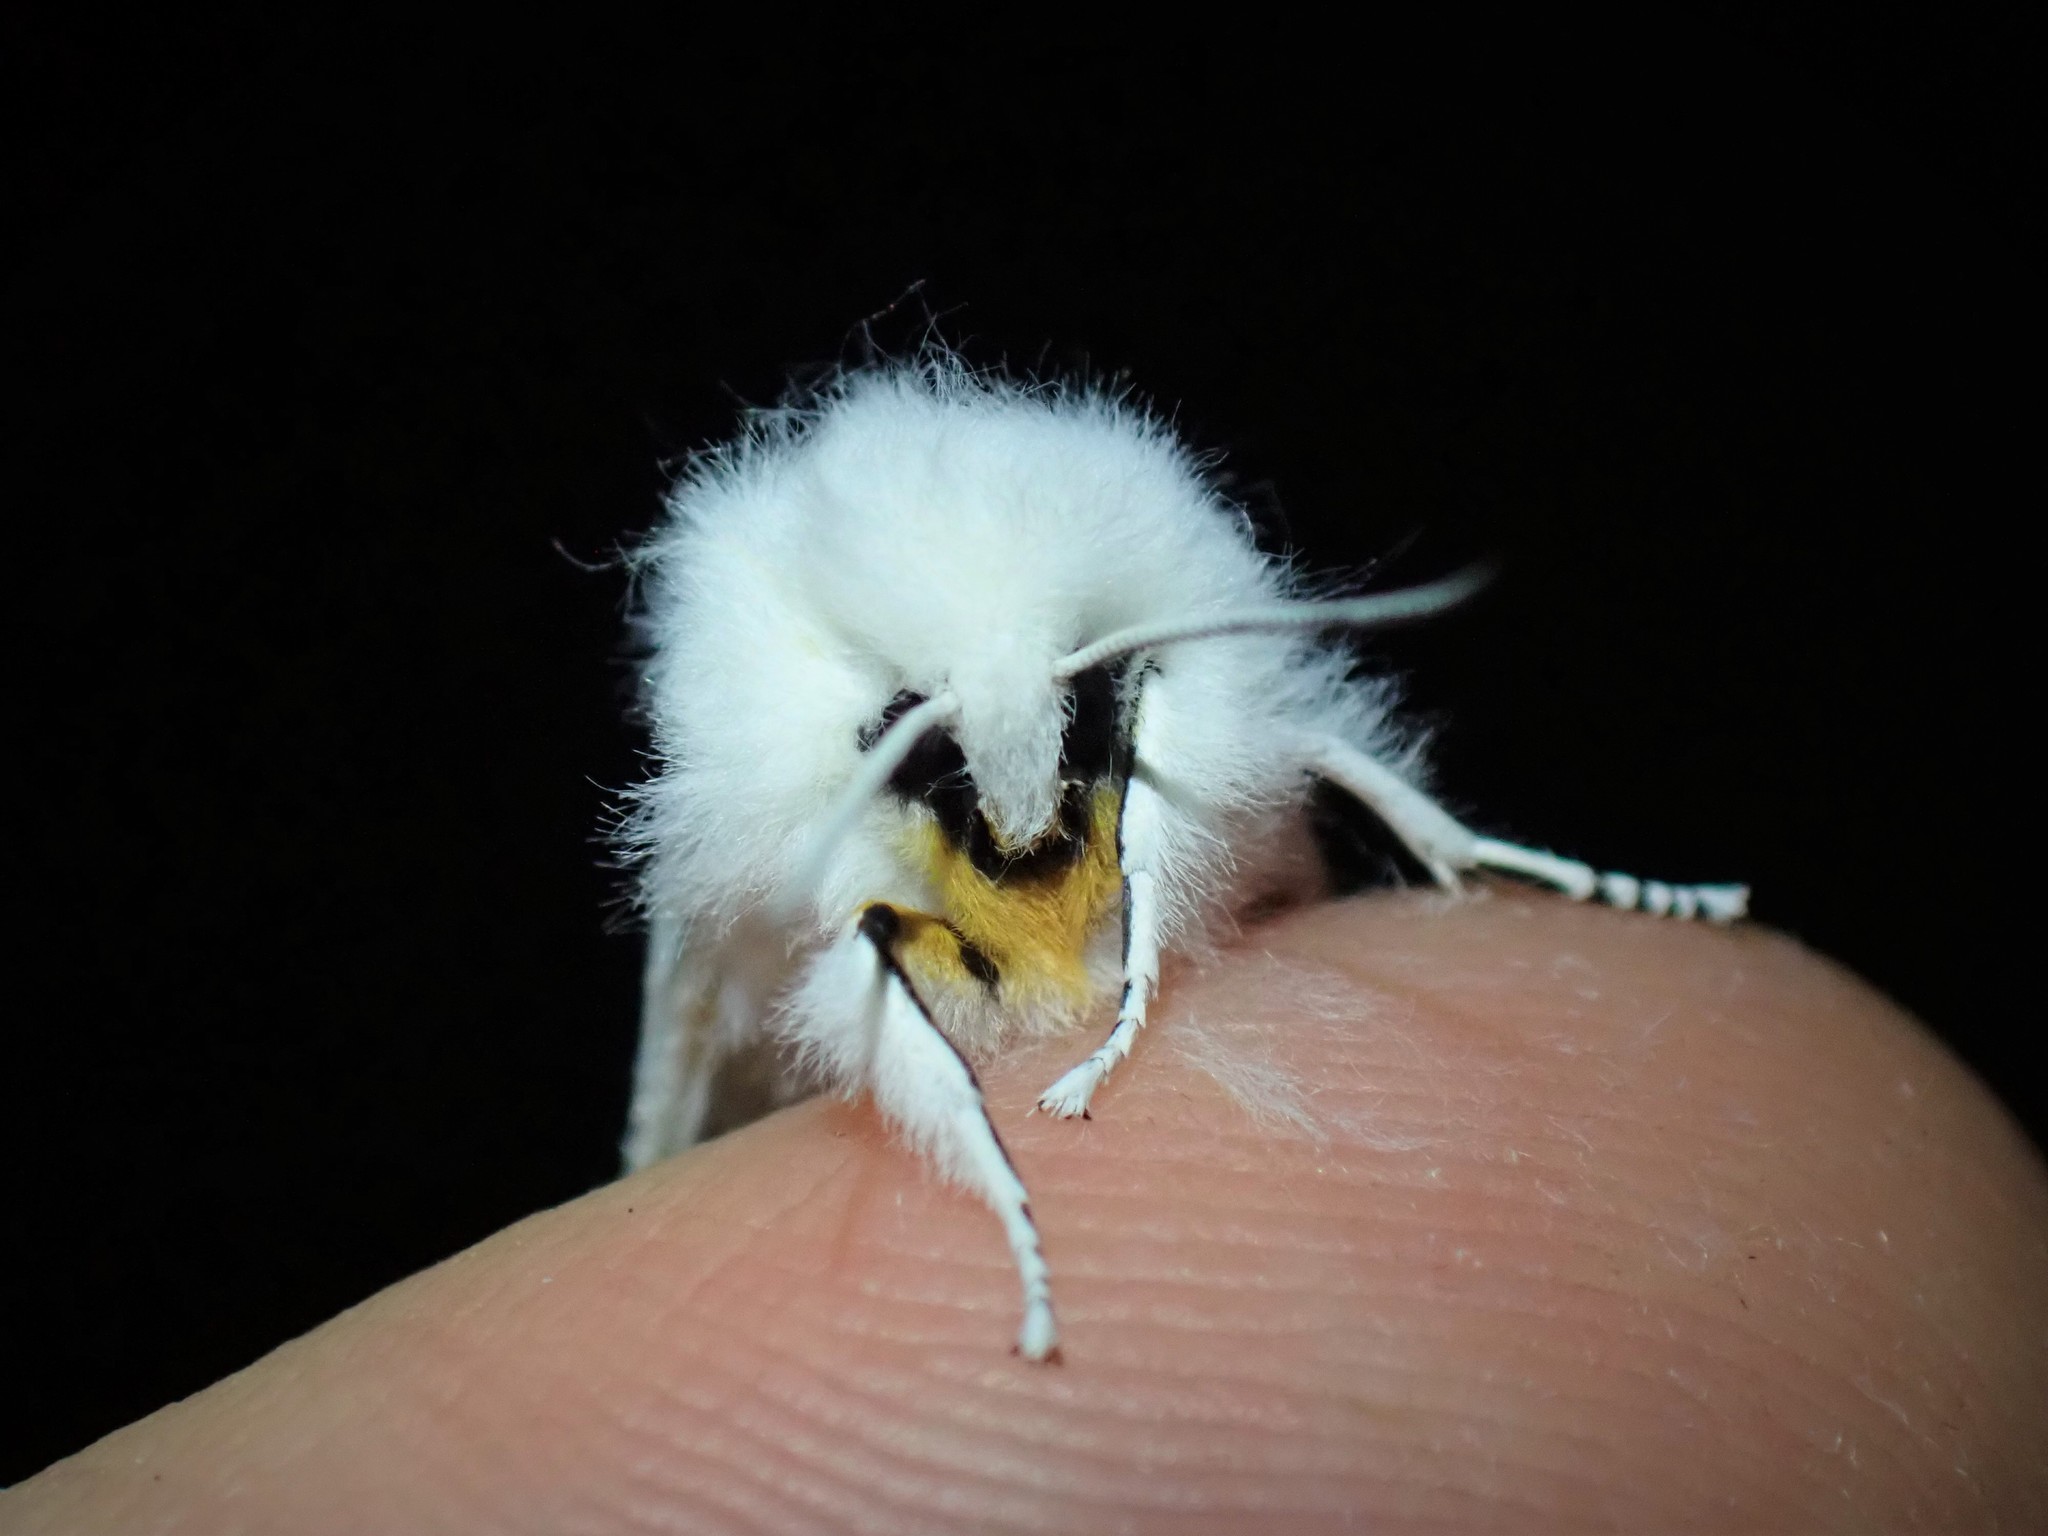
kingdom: Animalia
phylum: Arthropoda
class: Insecta
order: Lepidoptera
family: Erebidae
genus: Spilosoma
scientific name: Spilosoma virginica
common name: Virginia tiger moth
